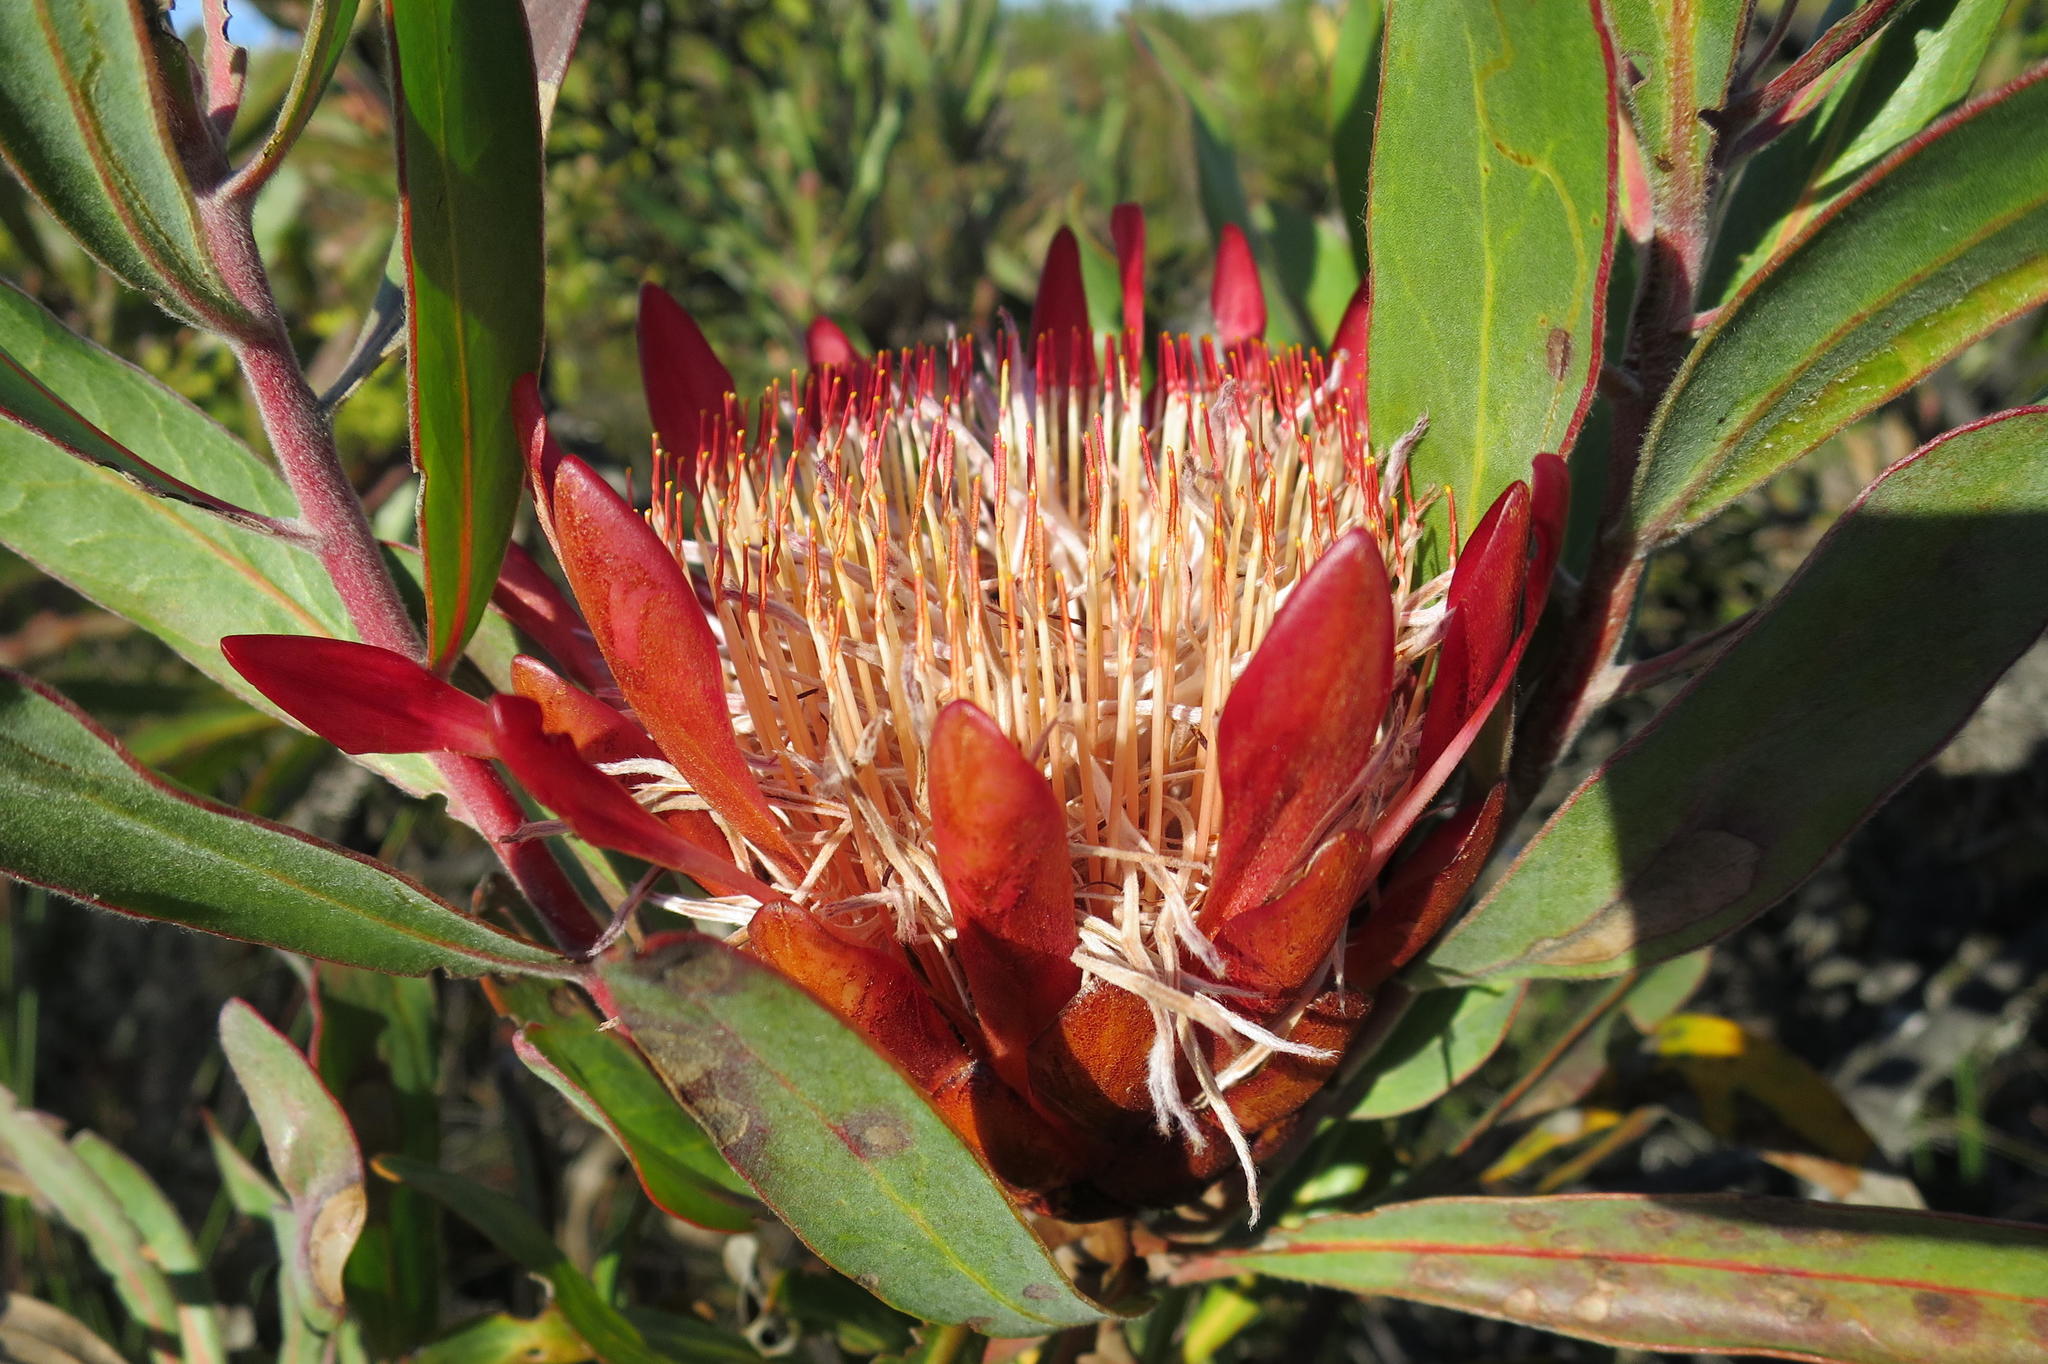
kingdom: Plantae
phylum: Tracheophyta
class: Magnoliopsida
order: Proteales
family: Proteaceae
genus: Protea
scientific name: Protea susannae
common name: Foetid-leaf sugarbush
